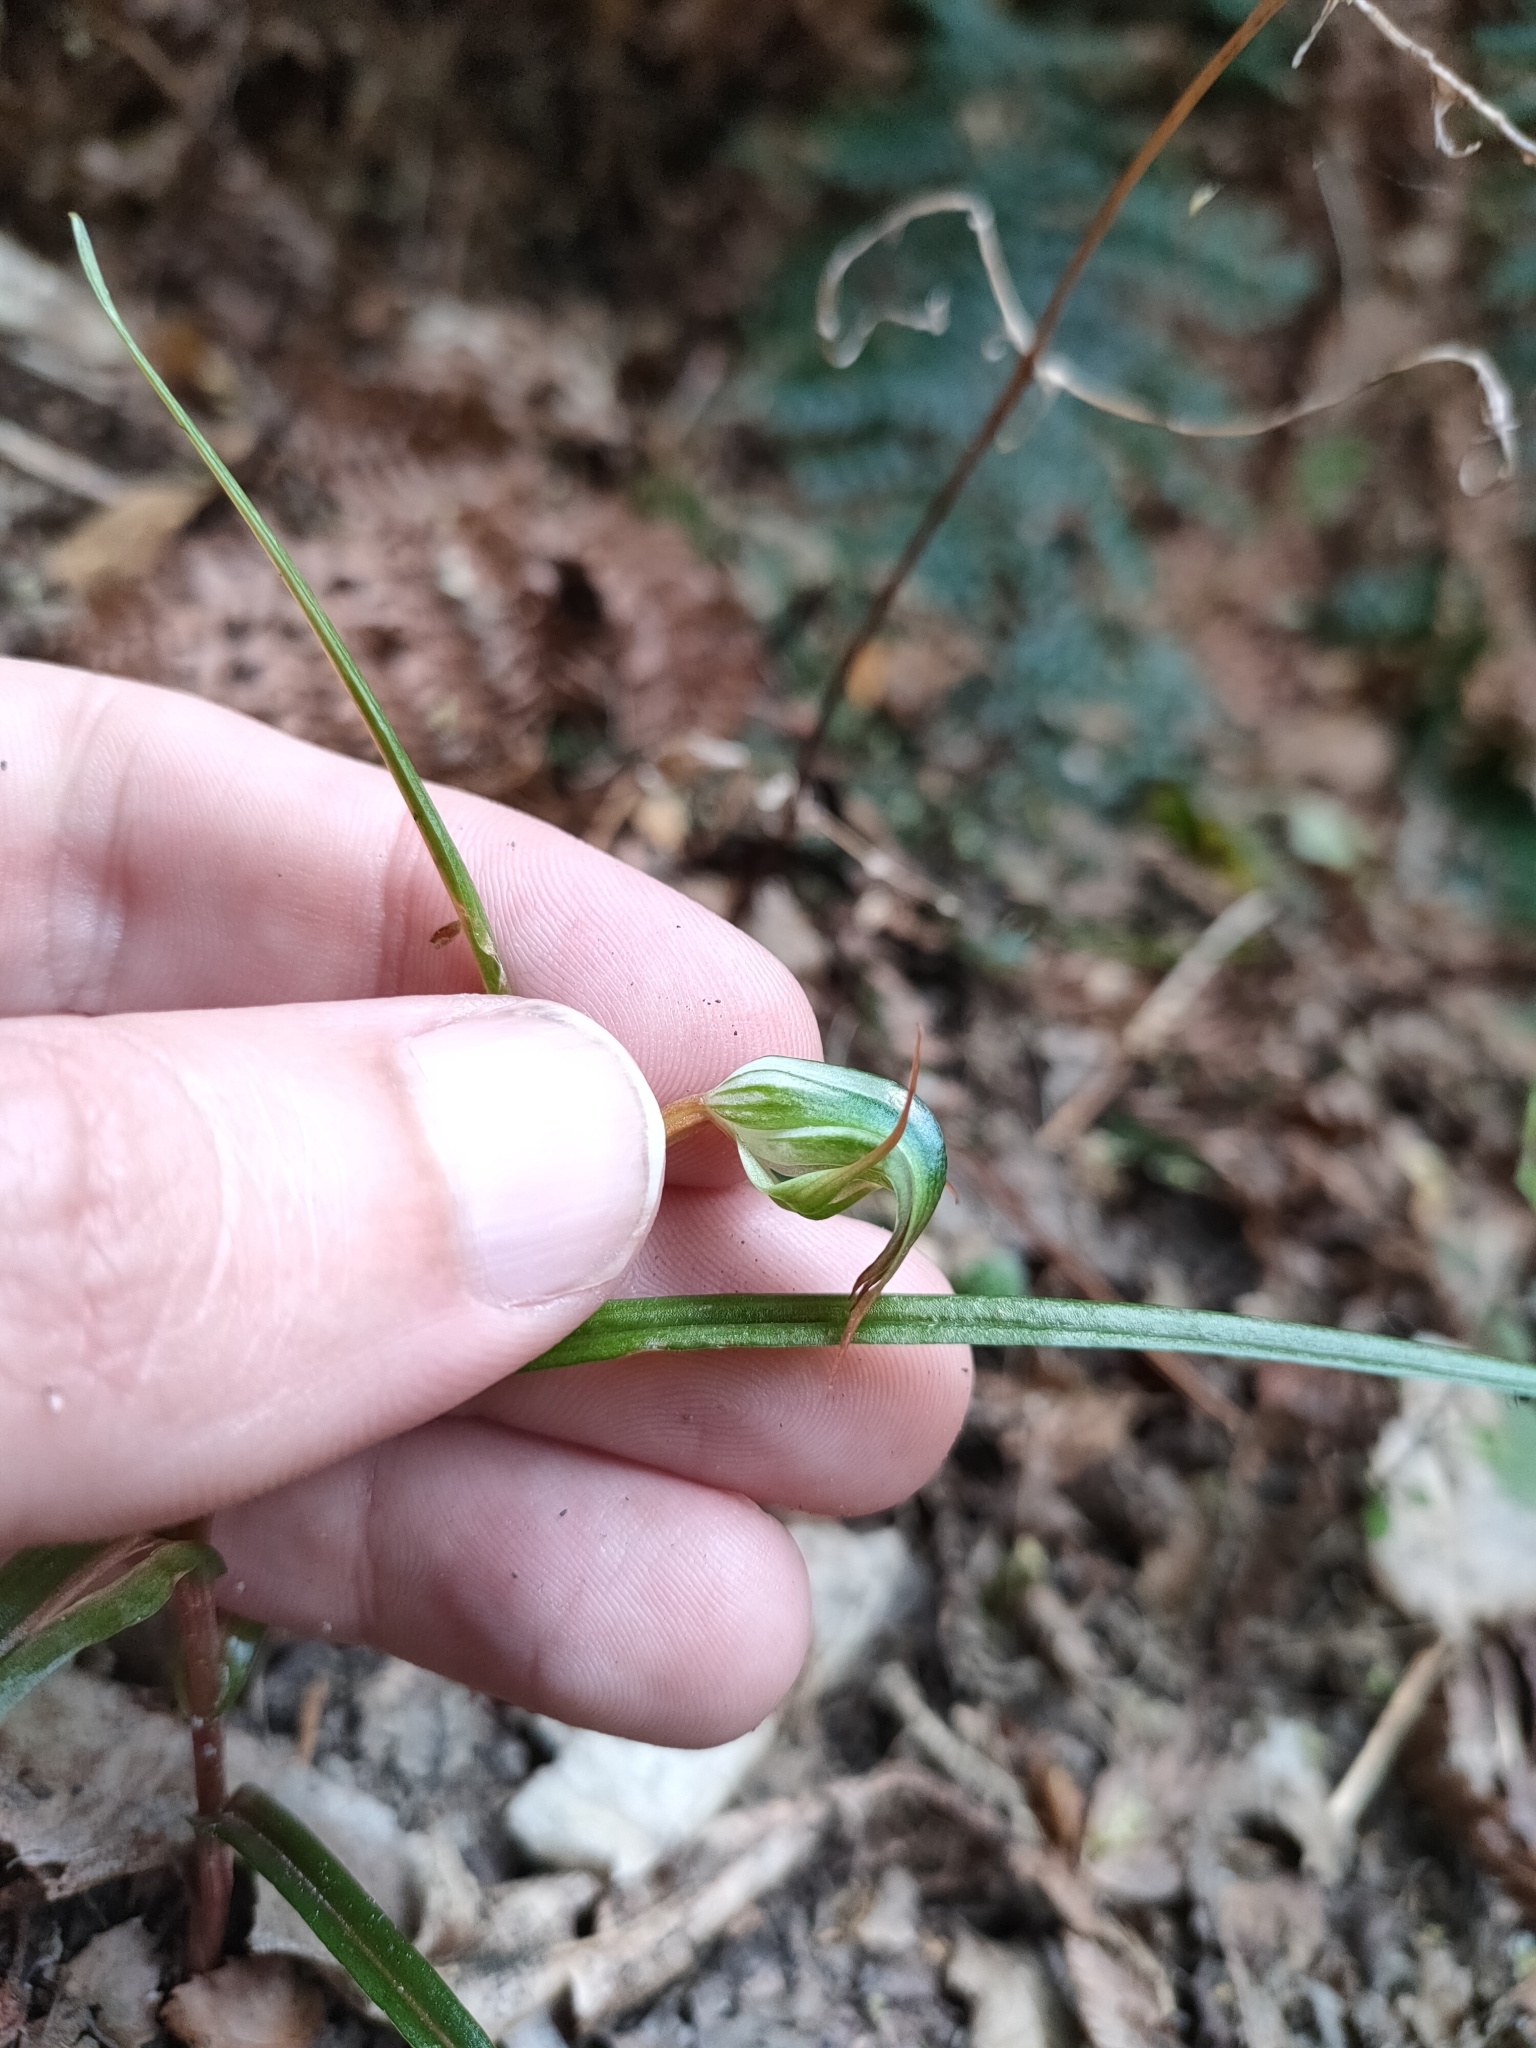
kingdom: Plantae
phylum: Tracheophyta
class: Liliopsida
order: Asparagales
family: Orchidaceae
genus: Pterostylis
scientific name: Pterostylis graminea
